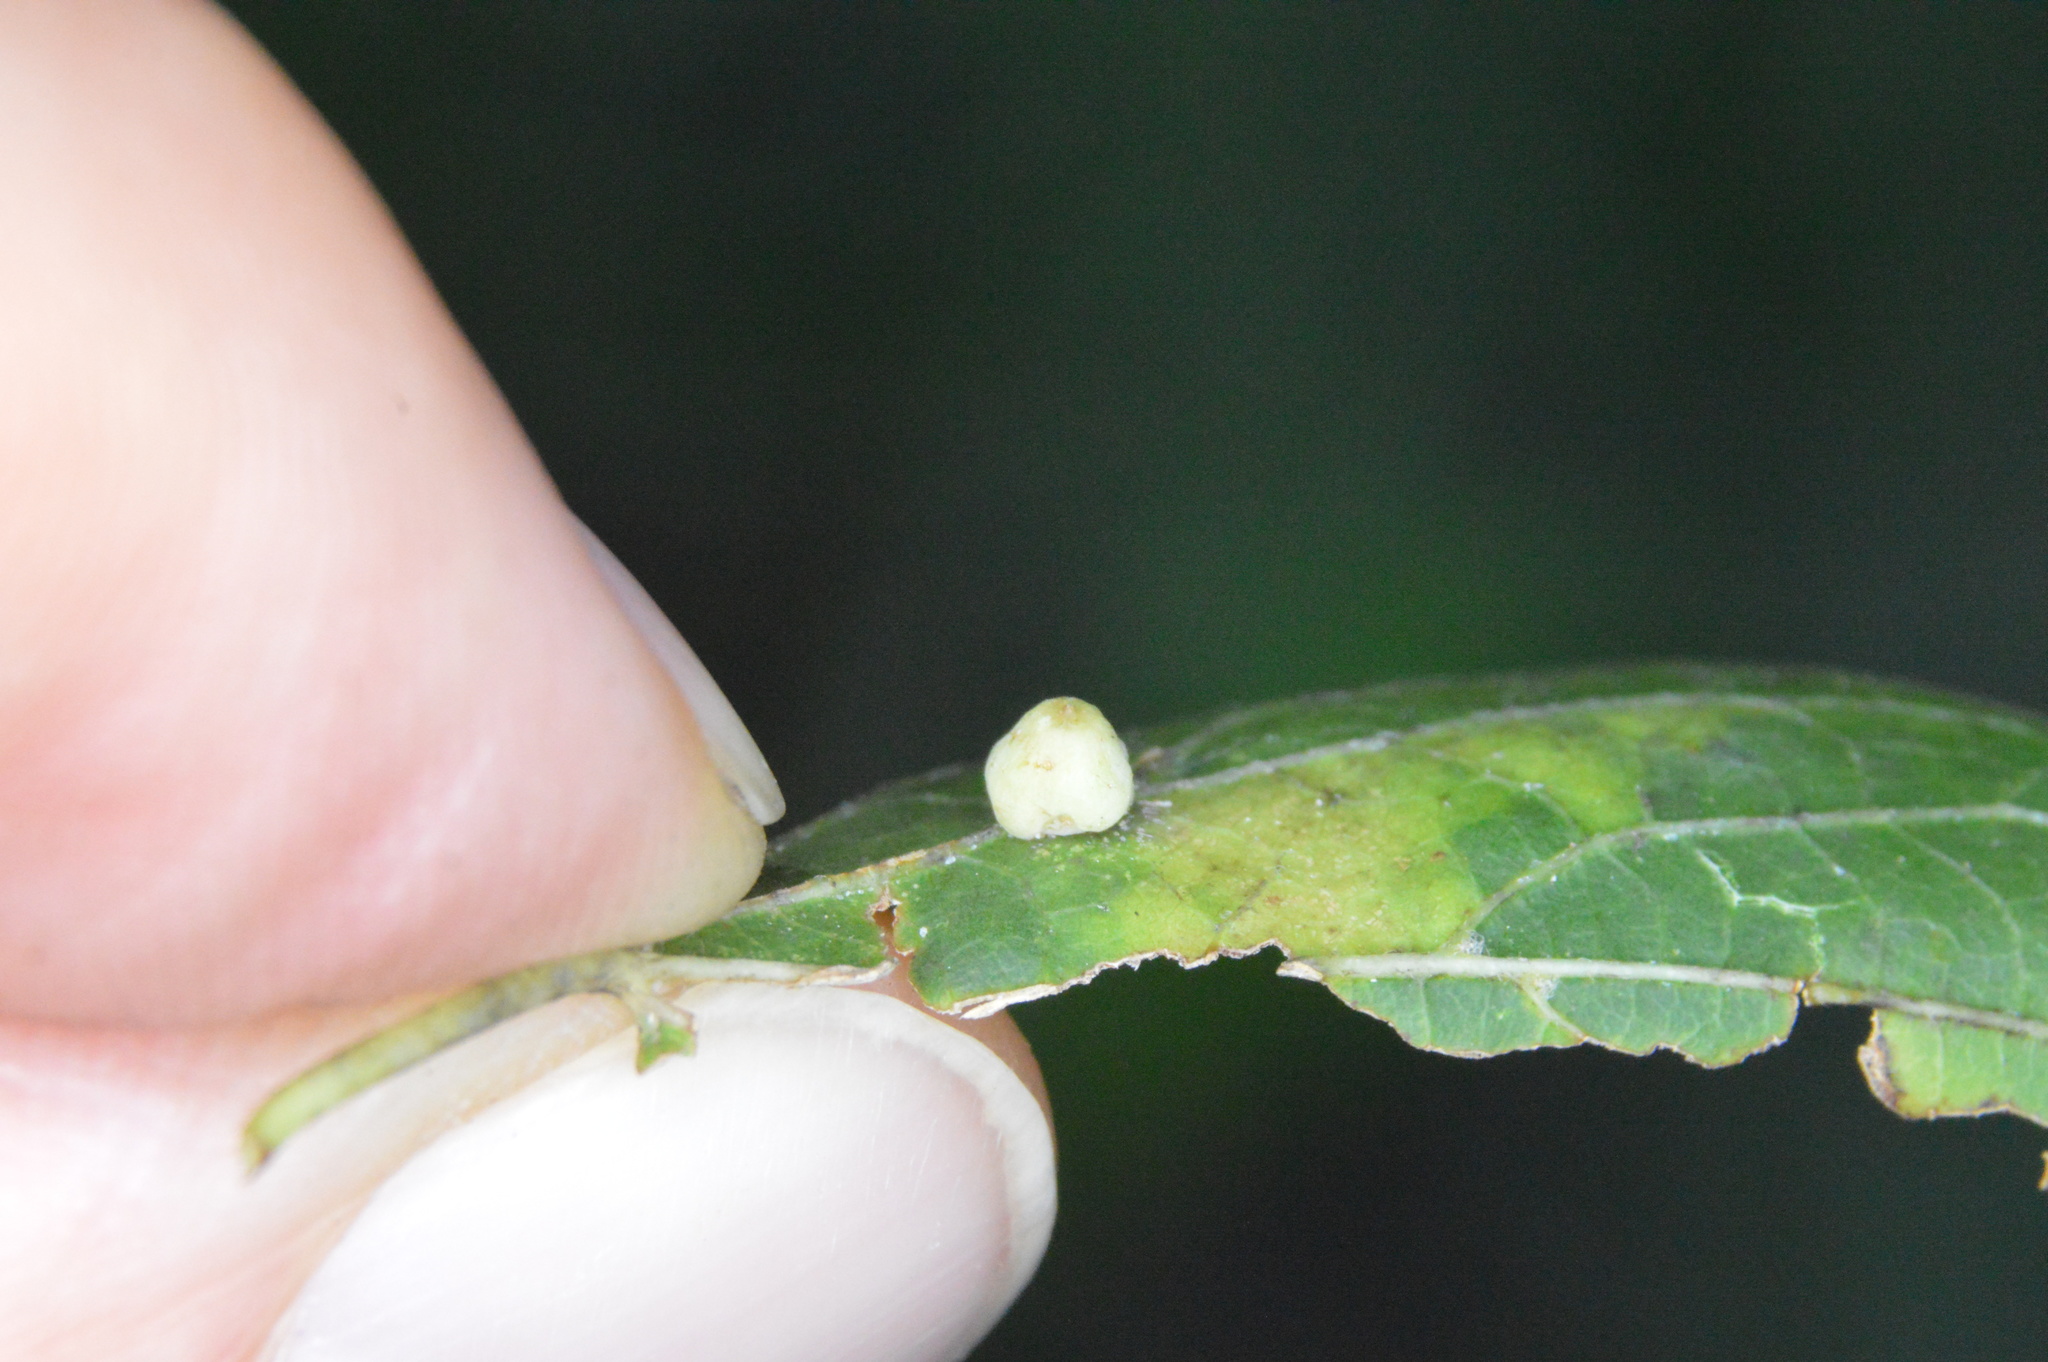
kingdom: Animalia
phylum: Arthropoda
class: Insecta
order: Diptera
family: Cecidomyiidae
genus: Celticecis
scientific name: Celticecis globosa
